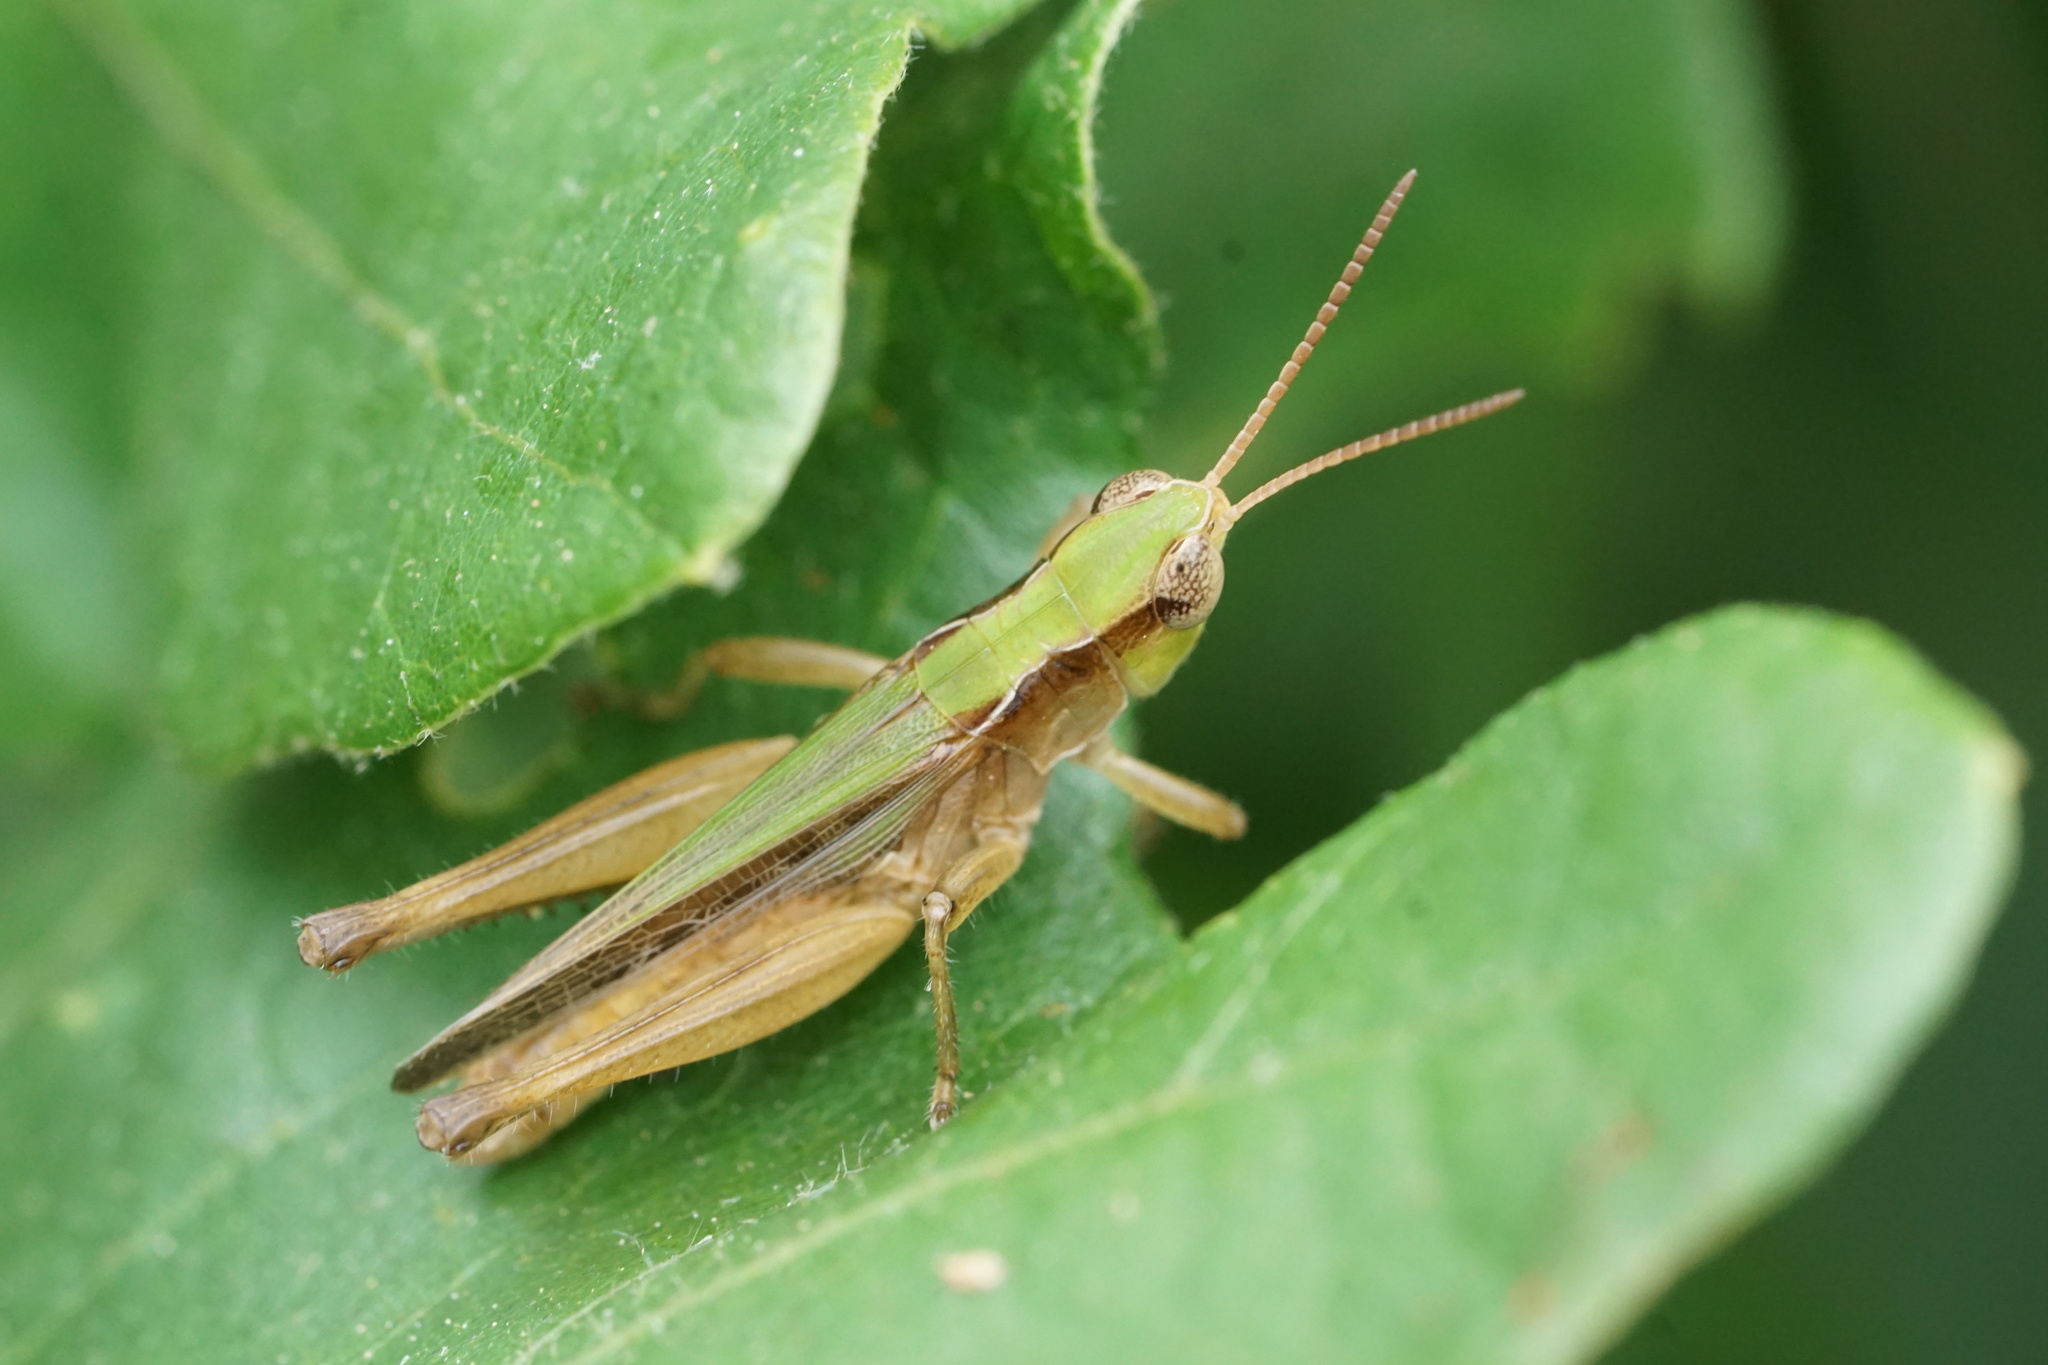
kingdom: Animalia
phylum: Arthropoda
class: Insecta
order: Orthoptera
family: Acrididae
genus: Orphulella
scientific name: Orphulella pelidna
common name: Spotted-wing grasshopper
